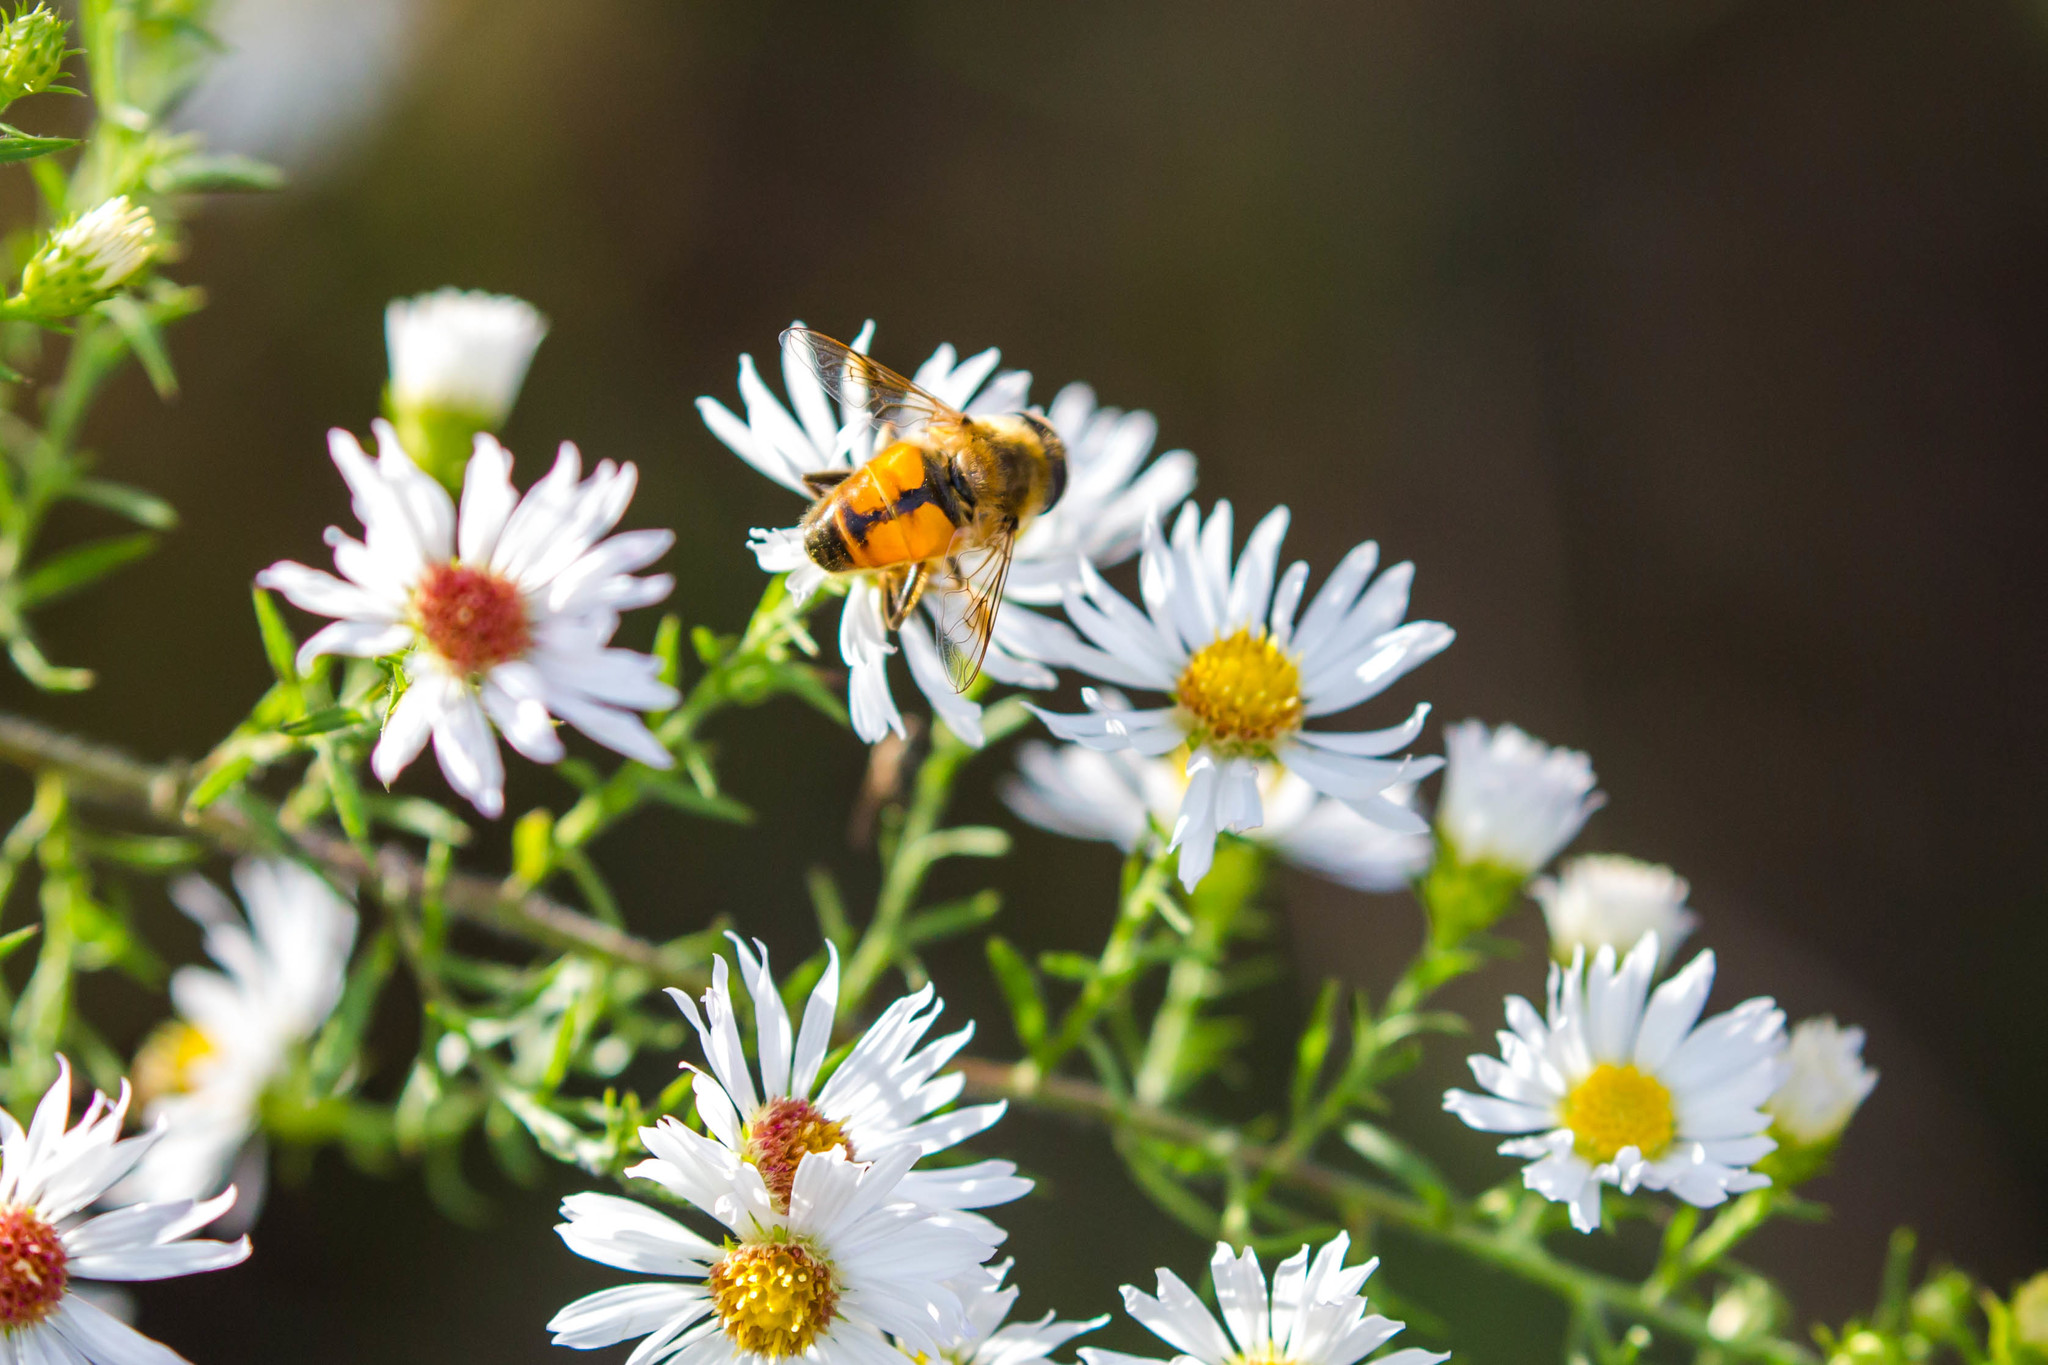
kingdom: Animalia
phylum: Arthropoda
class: Insecta
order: Diptera
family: Syrphidae
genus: Eristalis
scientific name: Eristalis tenax
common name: Drone fly
